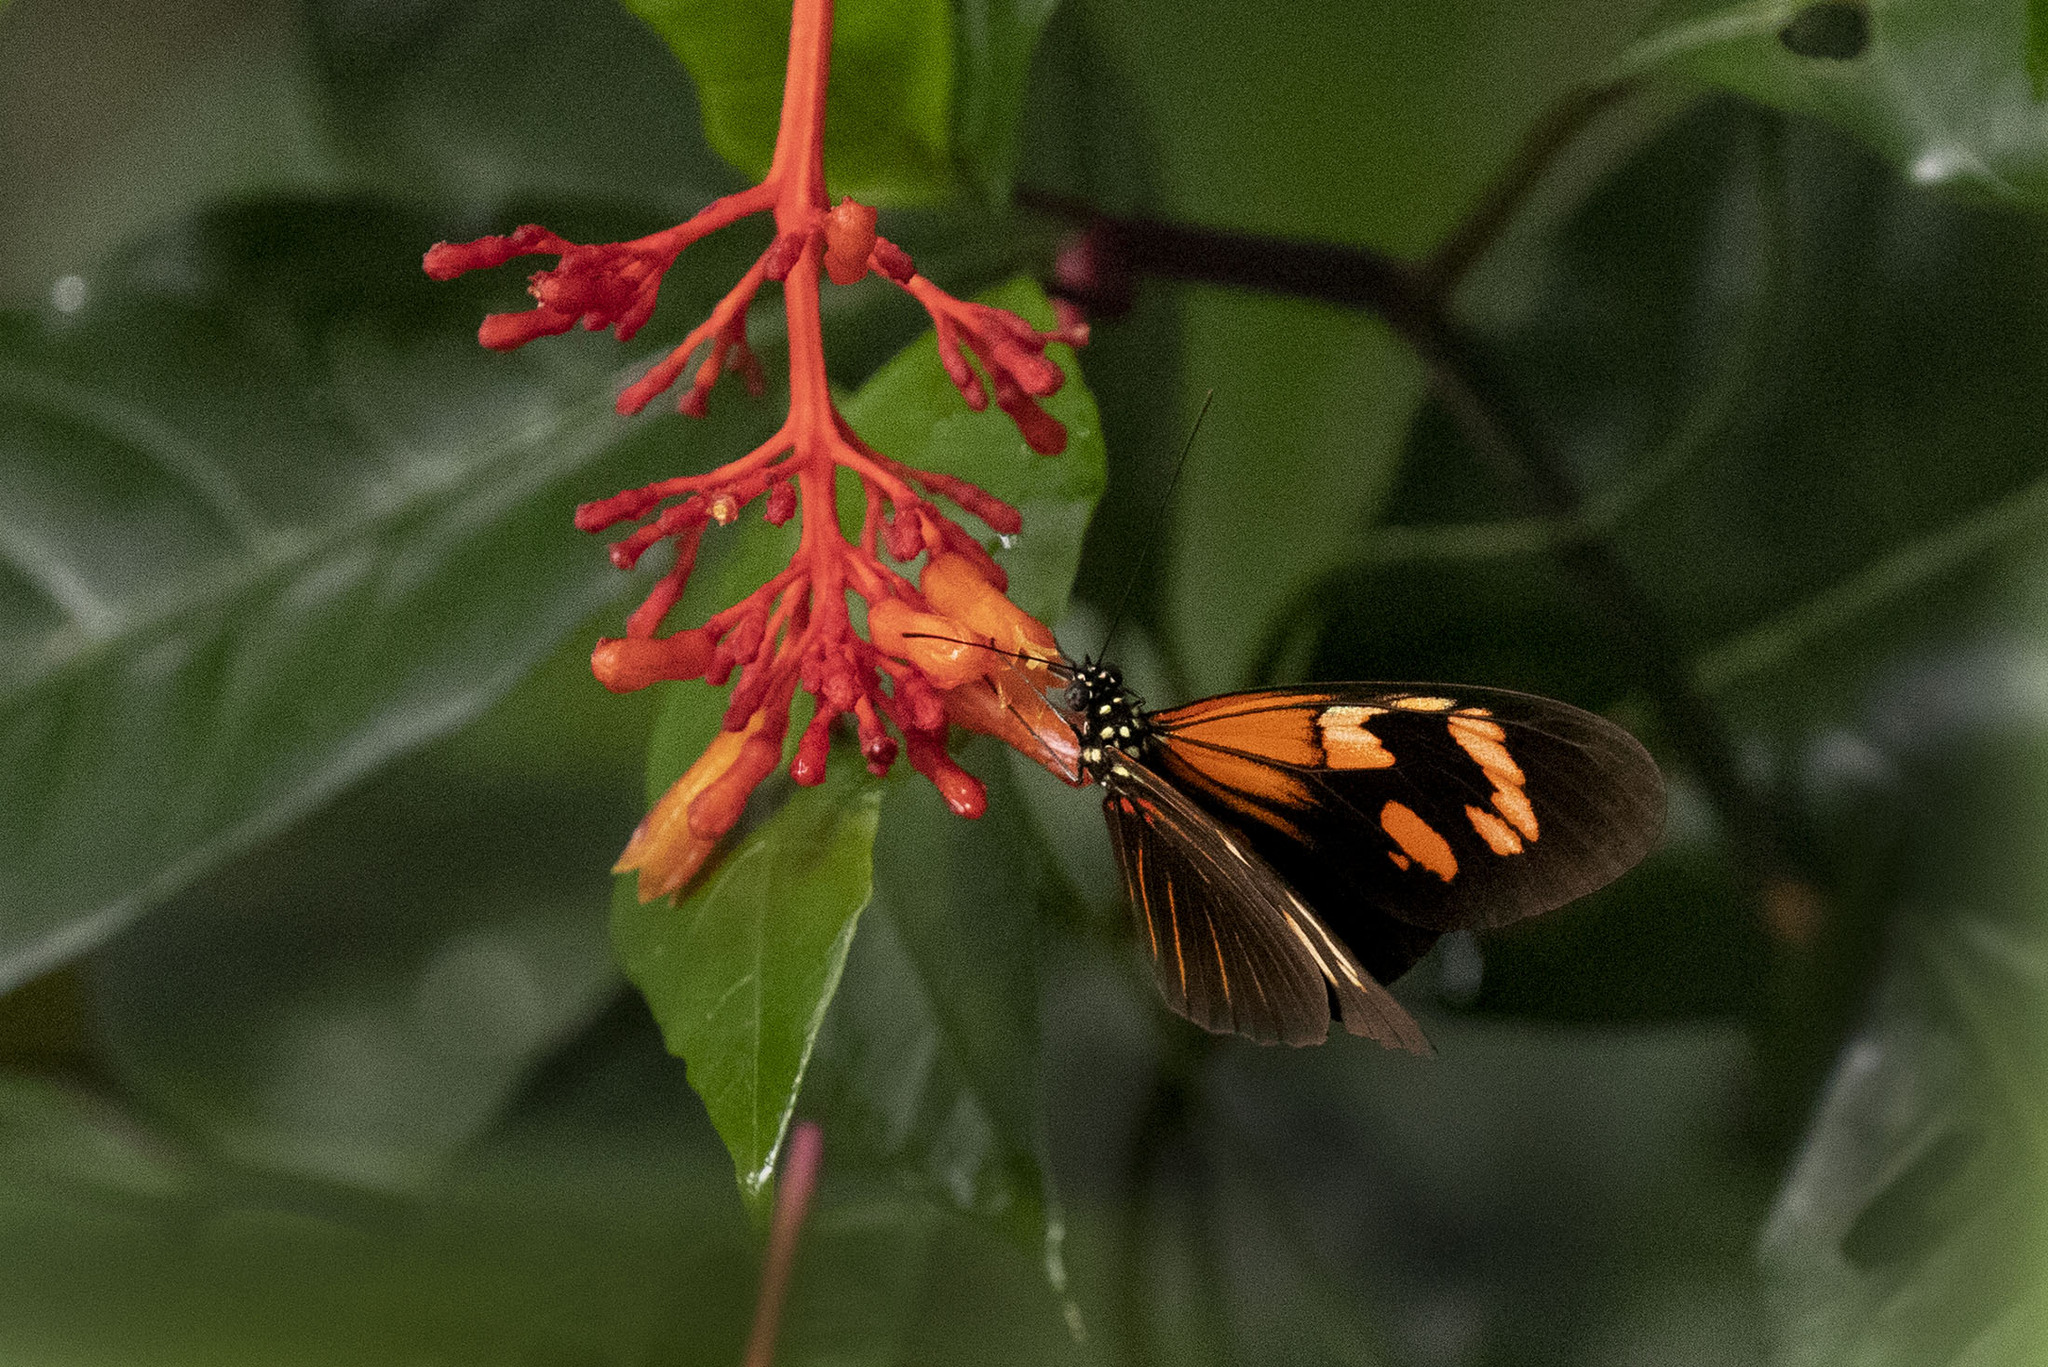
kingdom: Animalia
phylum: Arthropoda
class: Insecta
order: Lepidoptera
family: Nymphalidae
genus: Heliconius
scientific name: Heliconius erato
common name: Common patch longwing
